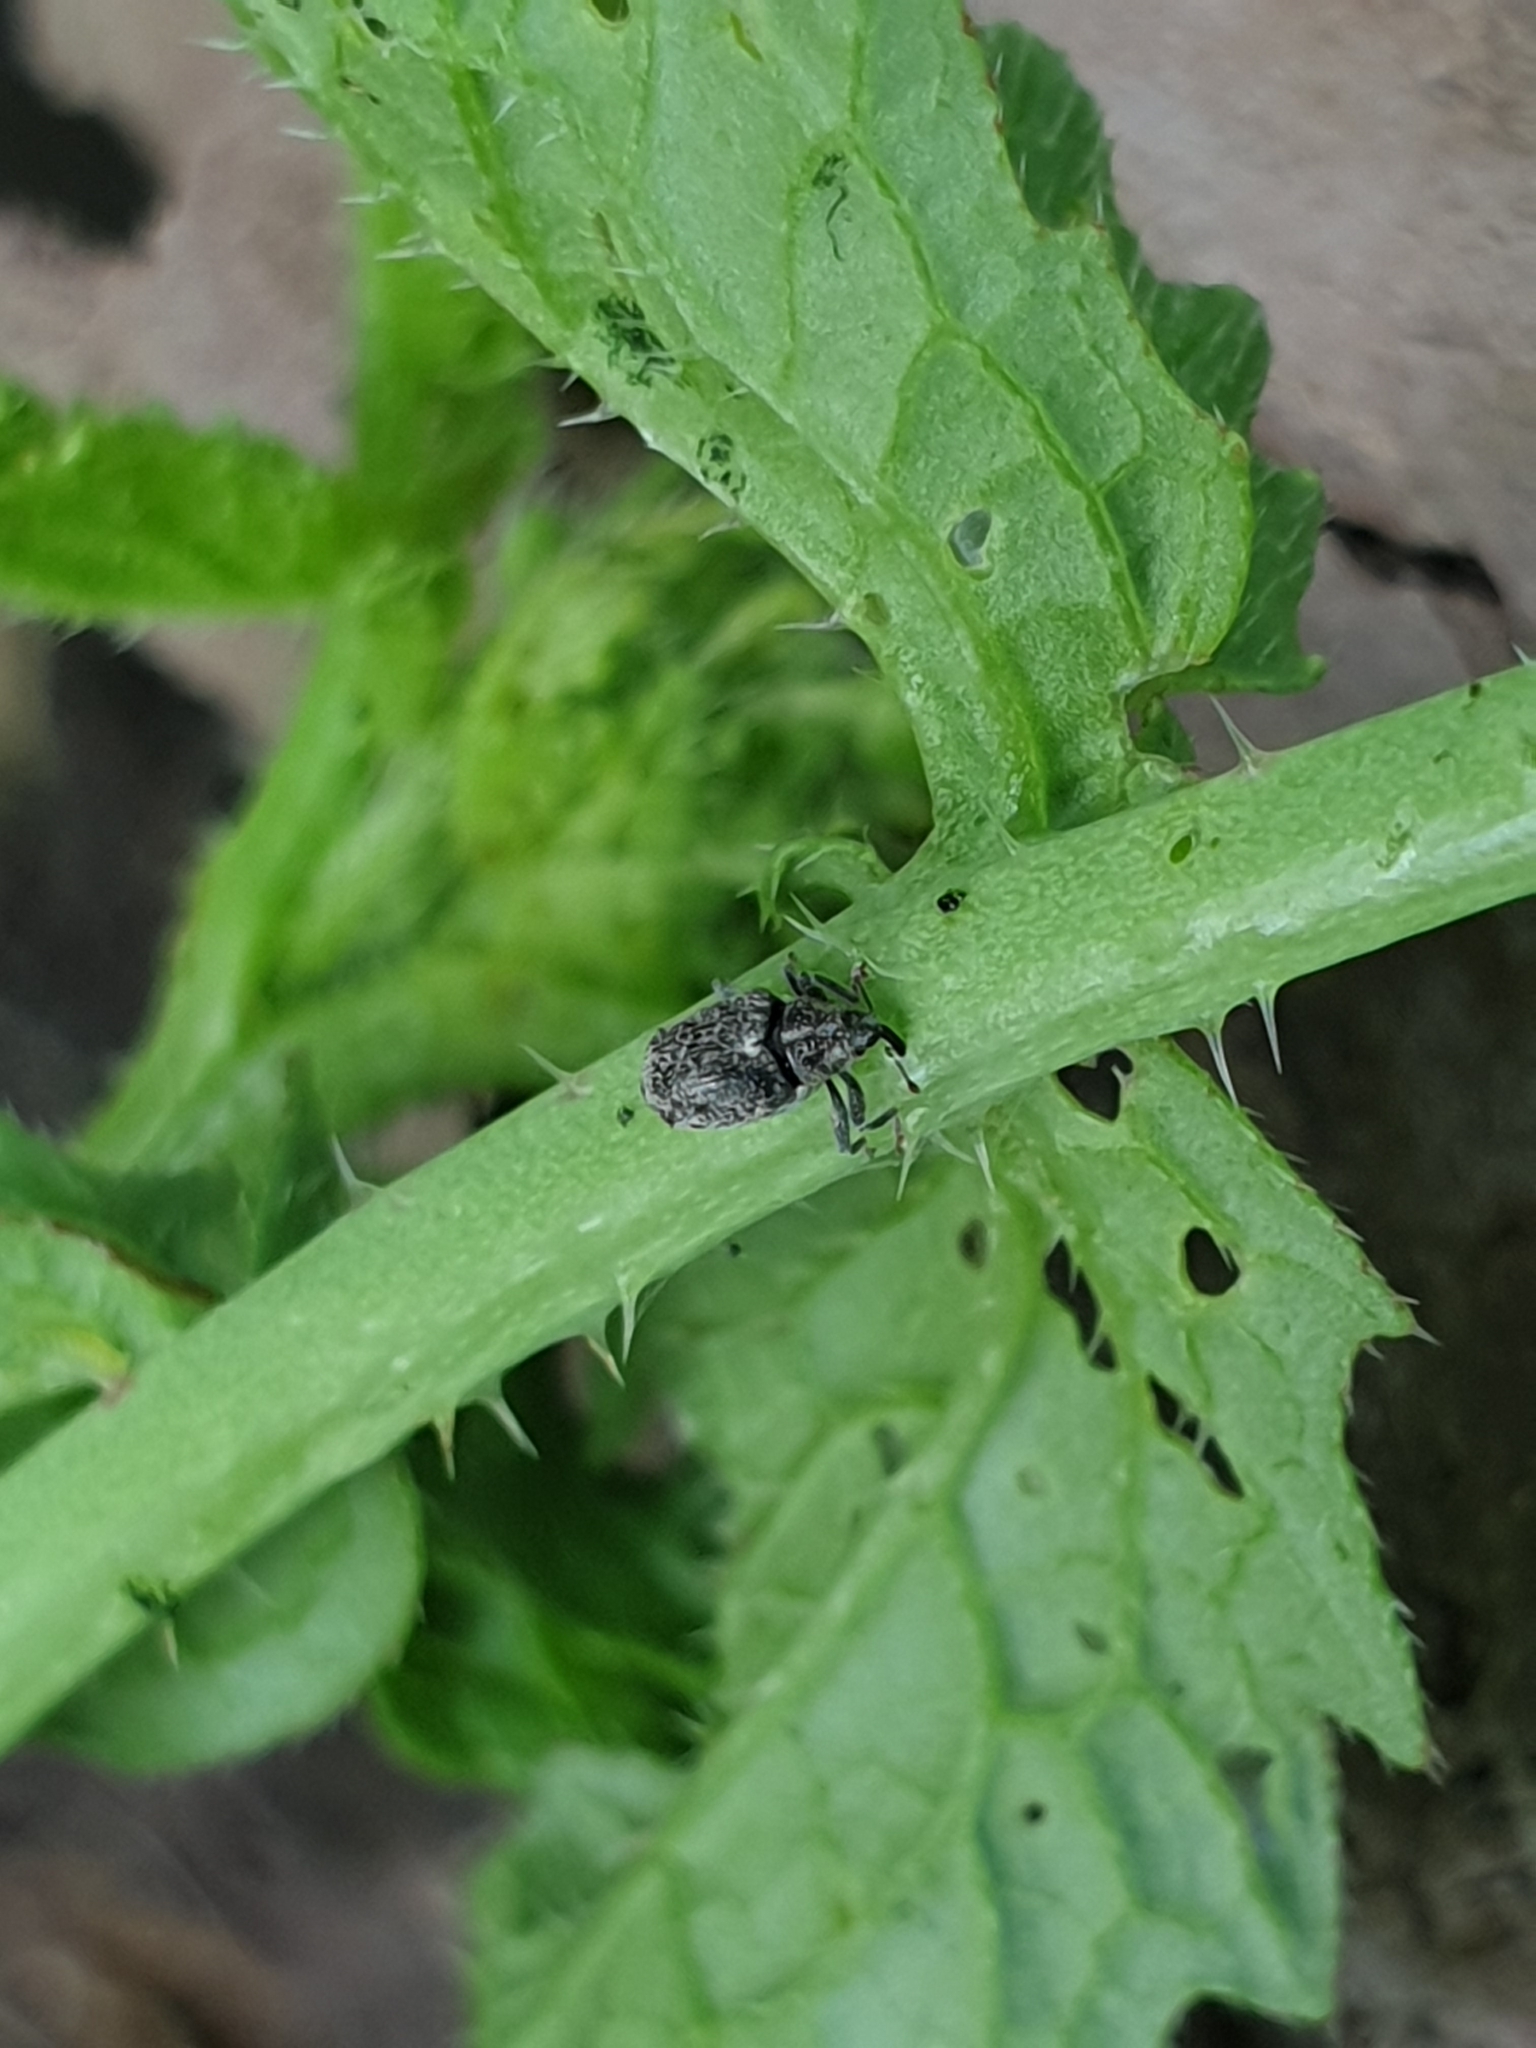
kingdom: Animalia
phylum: Arthropoda
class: Insecta
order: Coleoptera
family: Curculionidae
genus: Ceutorhynchus
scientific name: Ceutorhynchus pallidactylus
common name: Cabbage stem weavil
